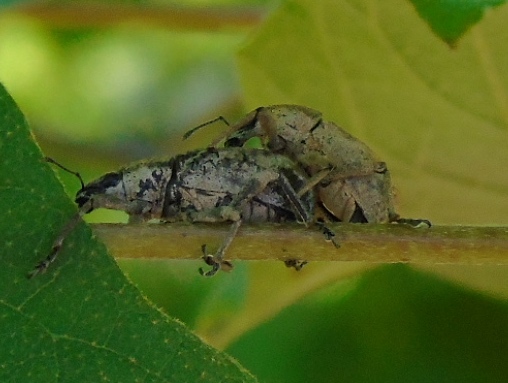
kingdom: Animalia
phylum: Arthropoda
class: Insecta
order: Coleoptera
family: Curculionidae
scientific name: Curculionidae
